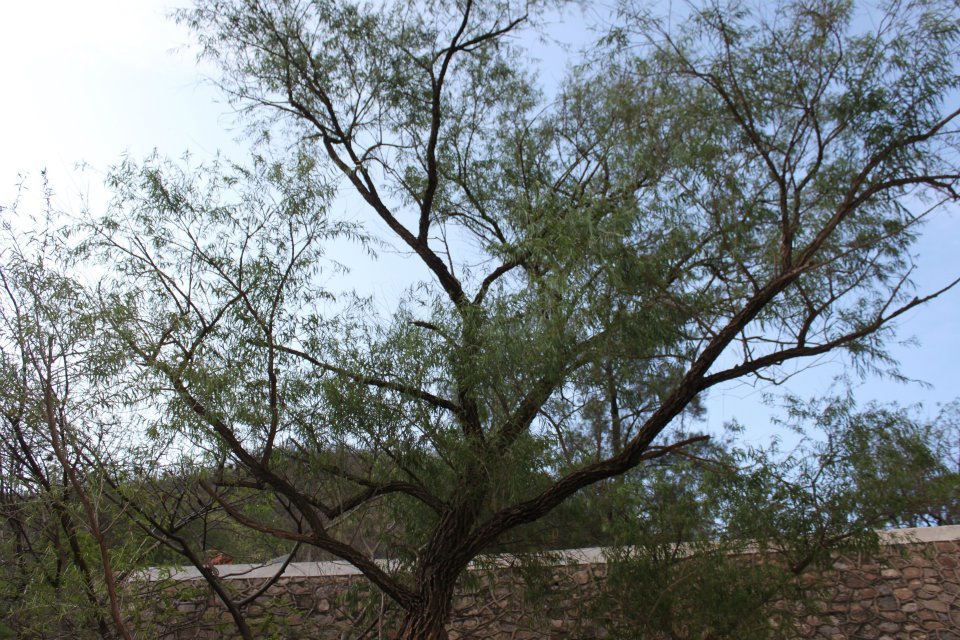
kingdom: Plantae
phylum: Tracheophyta
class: Magnoliopsida
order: Malpighiales
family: Salicaceae
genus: Salix
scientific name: Salix humboldtiana
